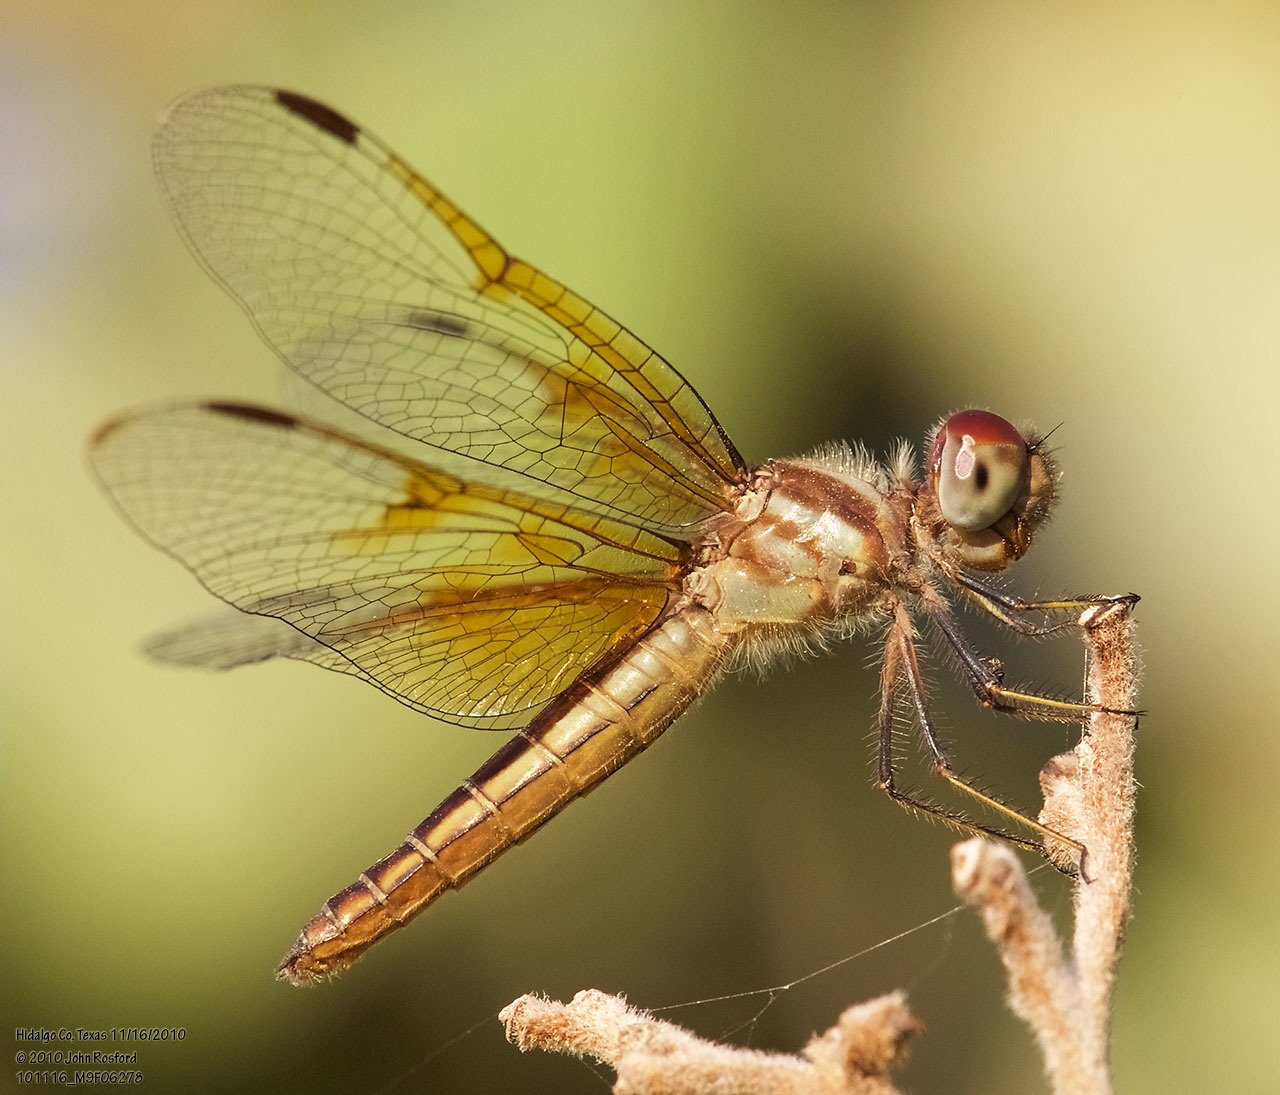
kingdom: Animalia
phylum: Arthropoda
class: Insecta
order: Odonata
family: Libellulidae
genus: Perithemis
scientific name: Perithemis domitia
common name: Slough amberwing
